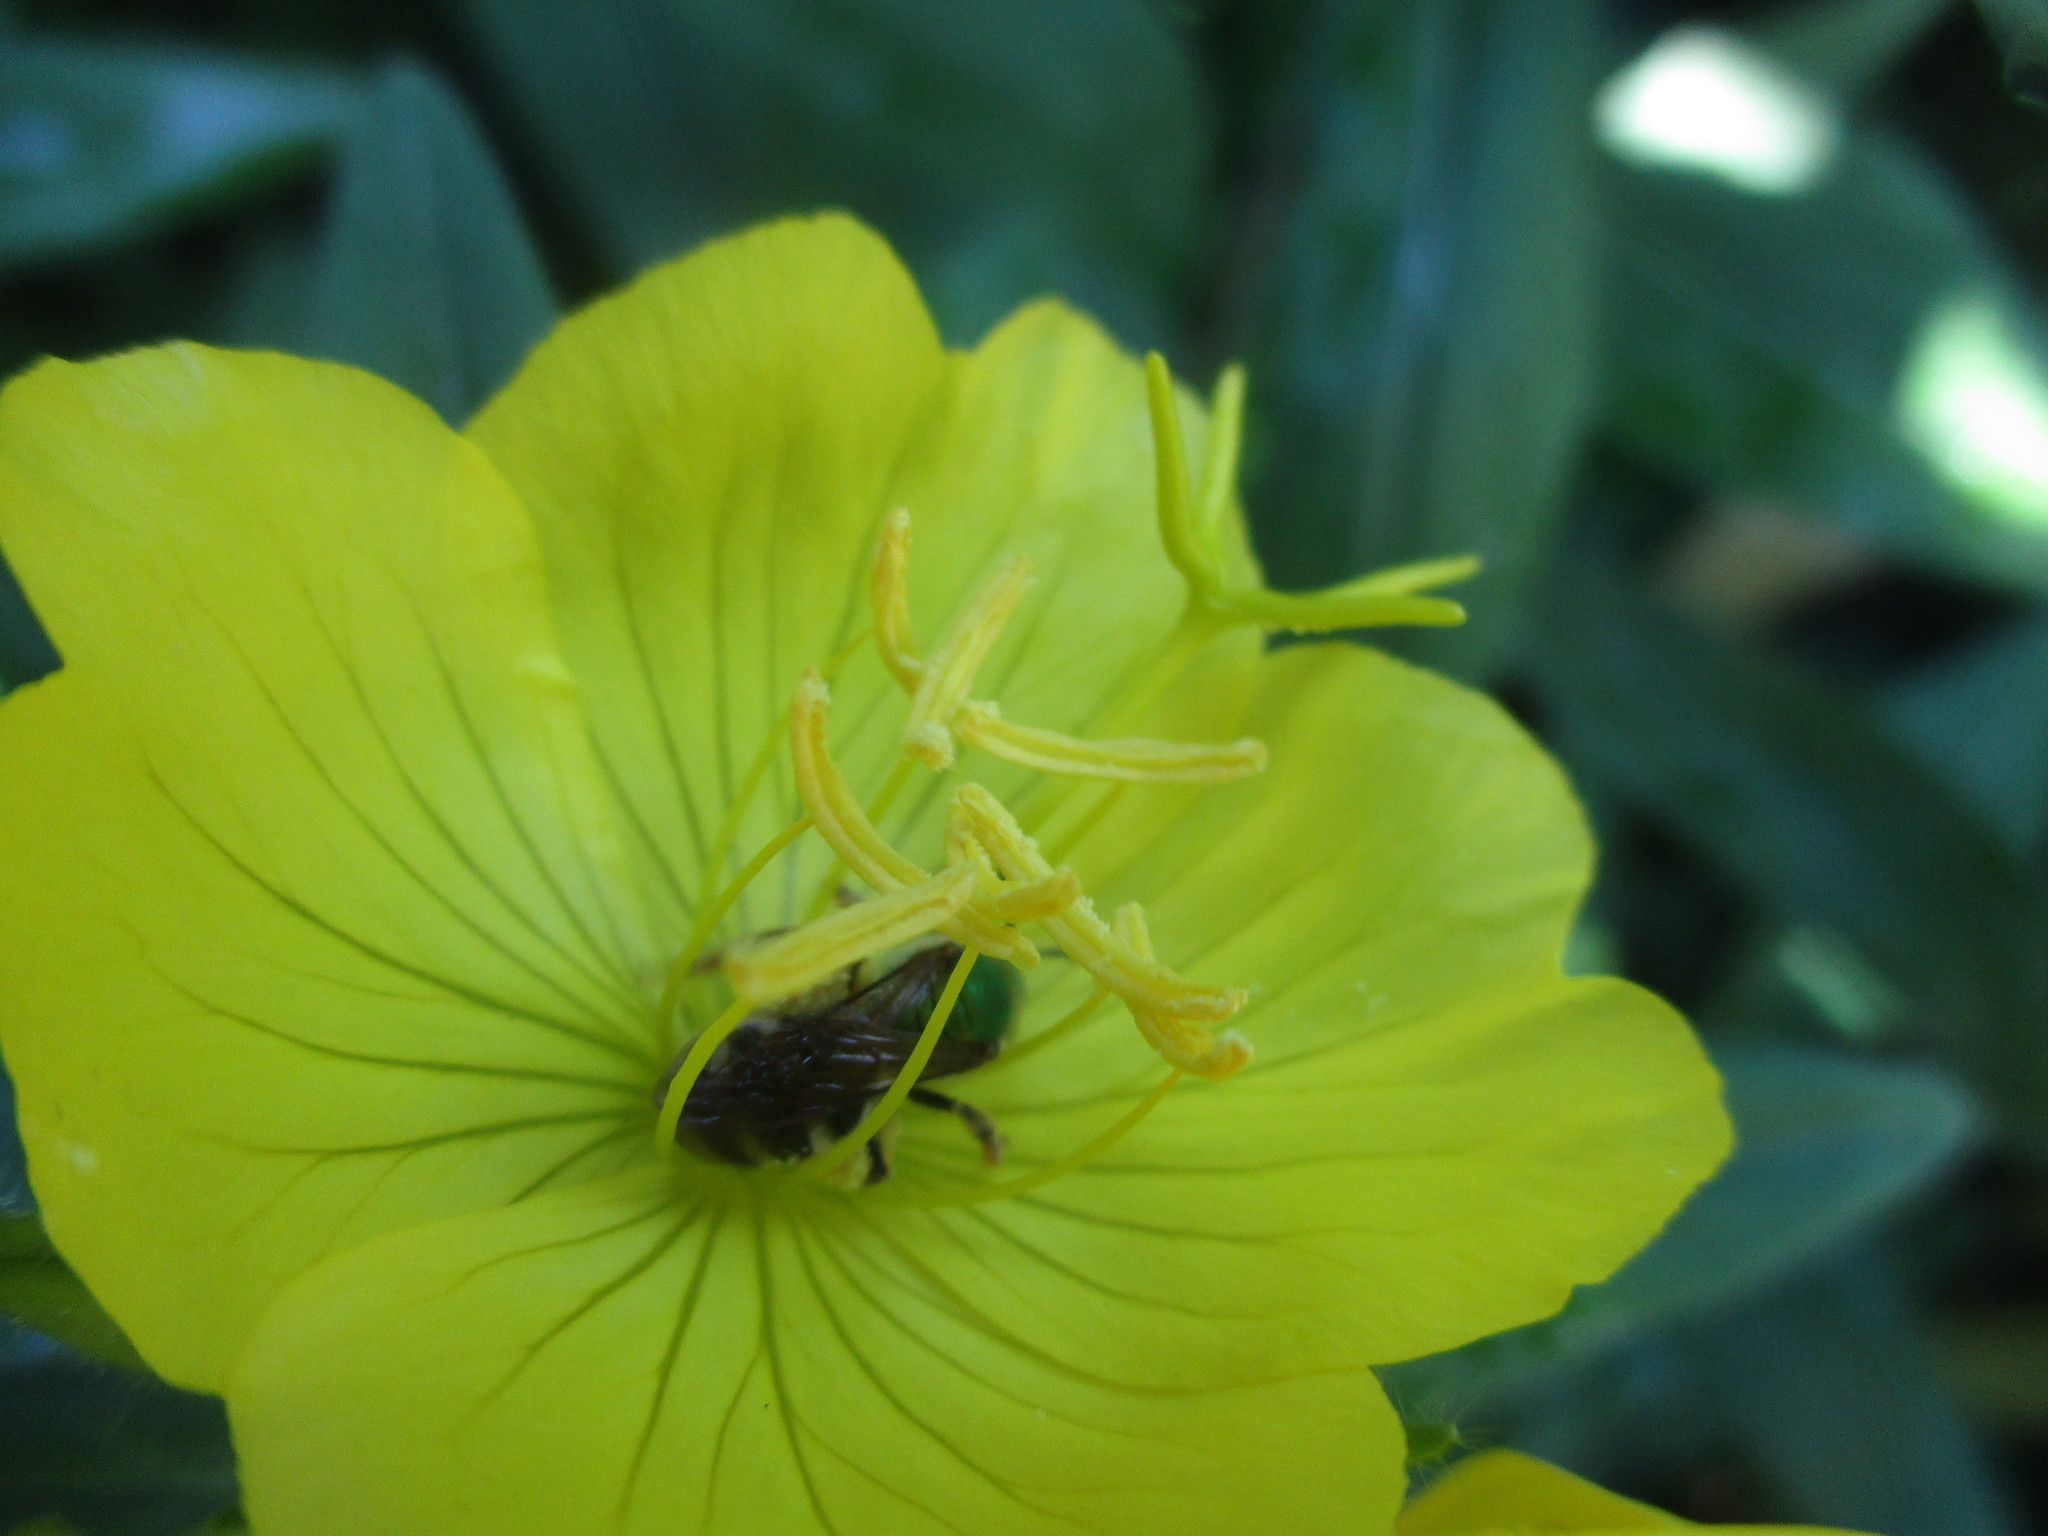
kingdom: Animalia
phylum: Arthropoda
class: Insecta
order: Hymenoptera
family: Halictidae
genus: Agapostemon
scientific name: Agapostemon virescens
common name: Bicolored striped sweat bee
